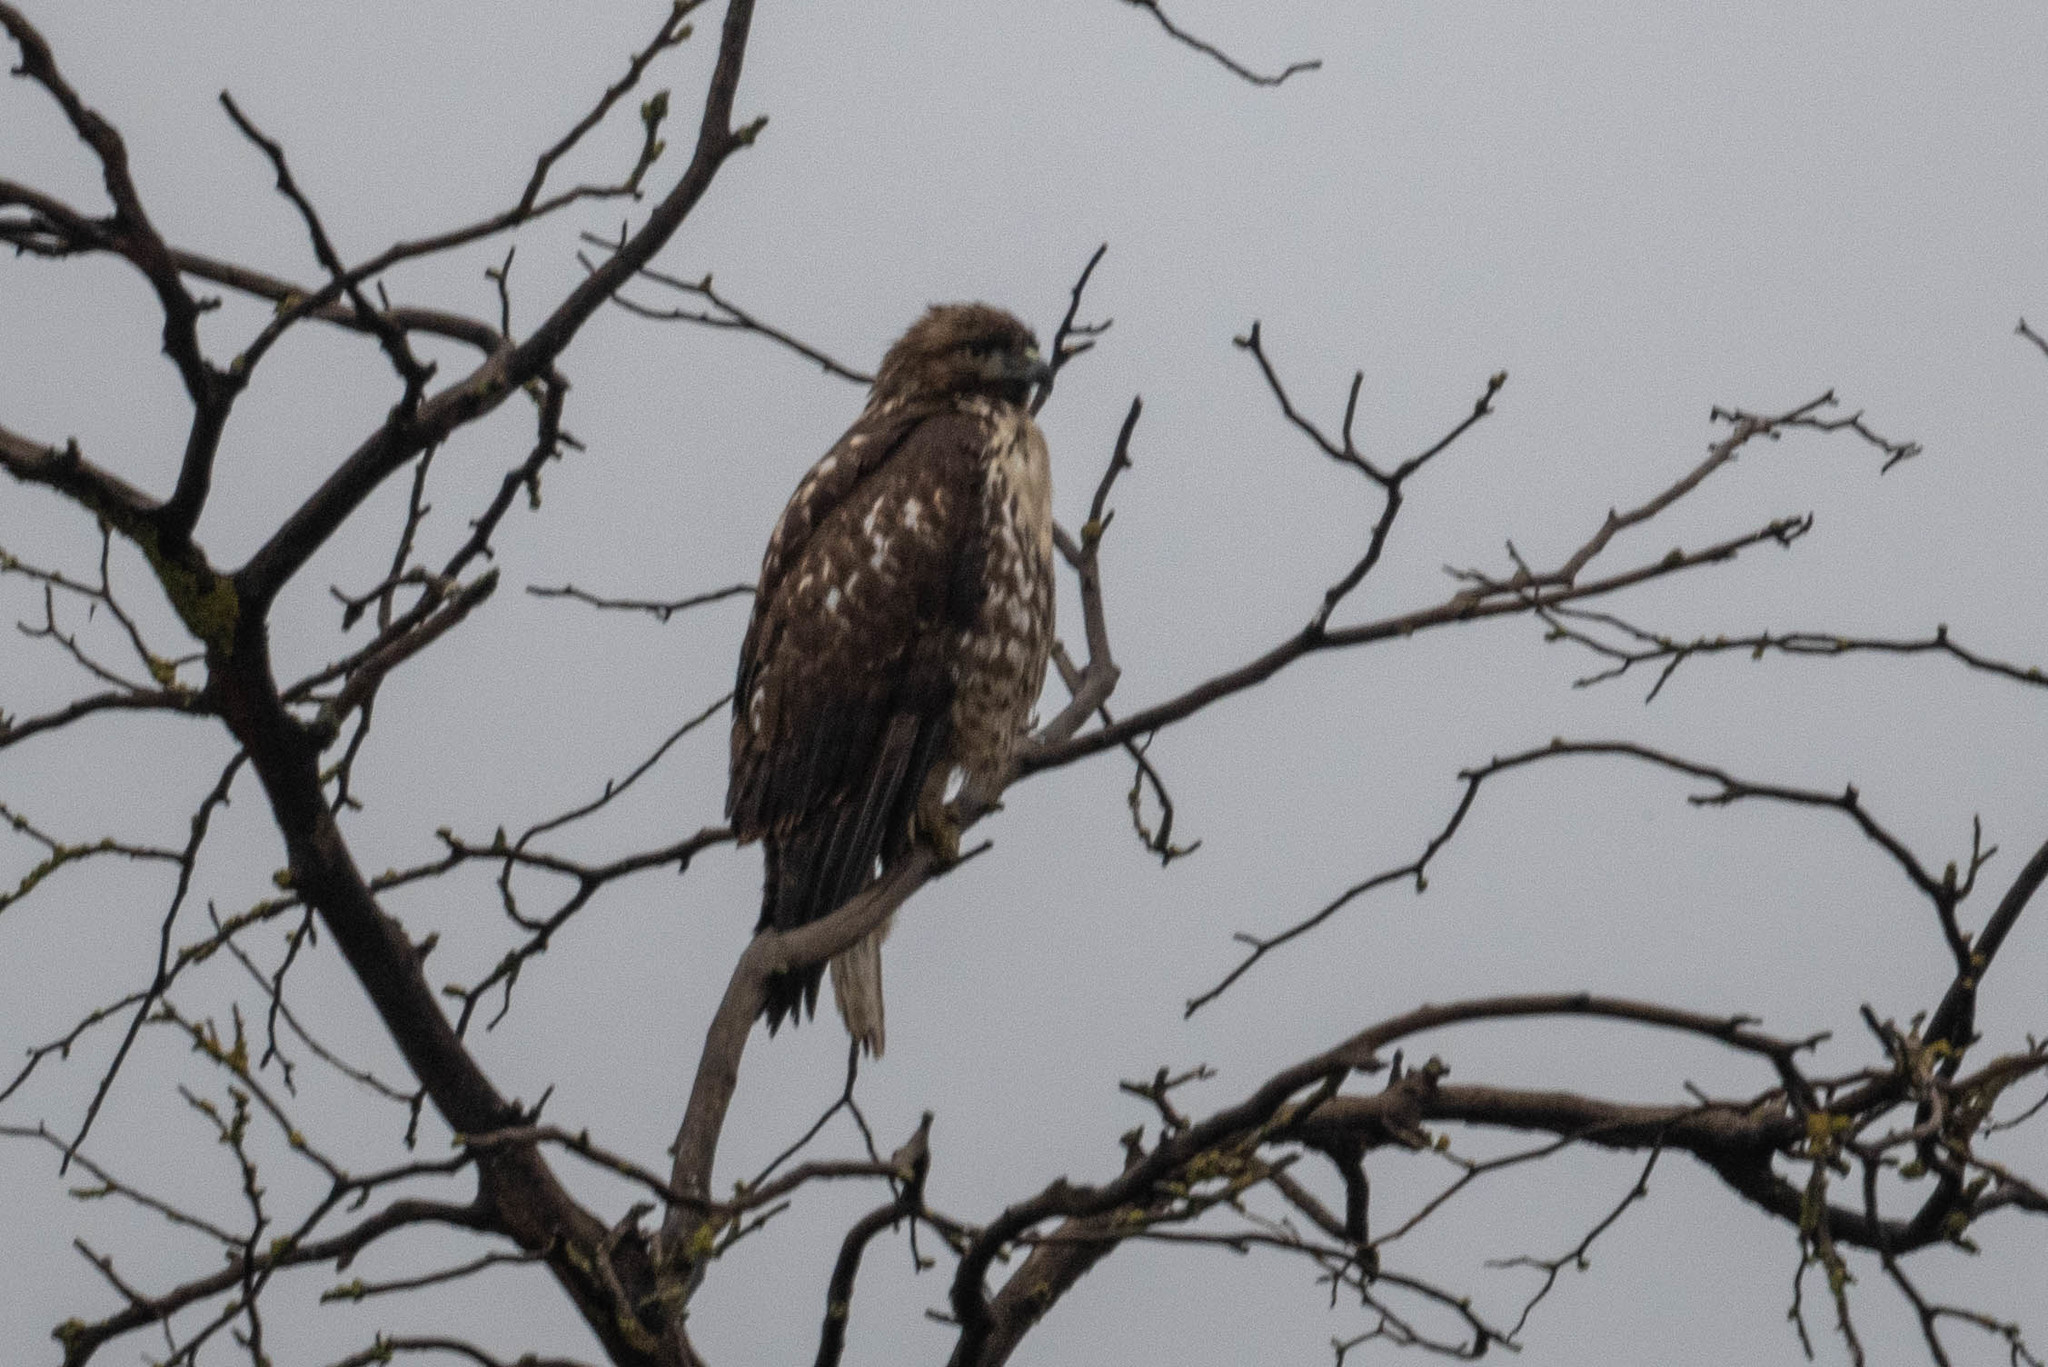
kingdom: Animalia
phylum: Chordata
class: Aves
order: Accipitriformes
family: Accipitridae
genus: Buteo
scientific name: Buteo jamaicensis
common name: Red-tailed hawk
